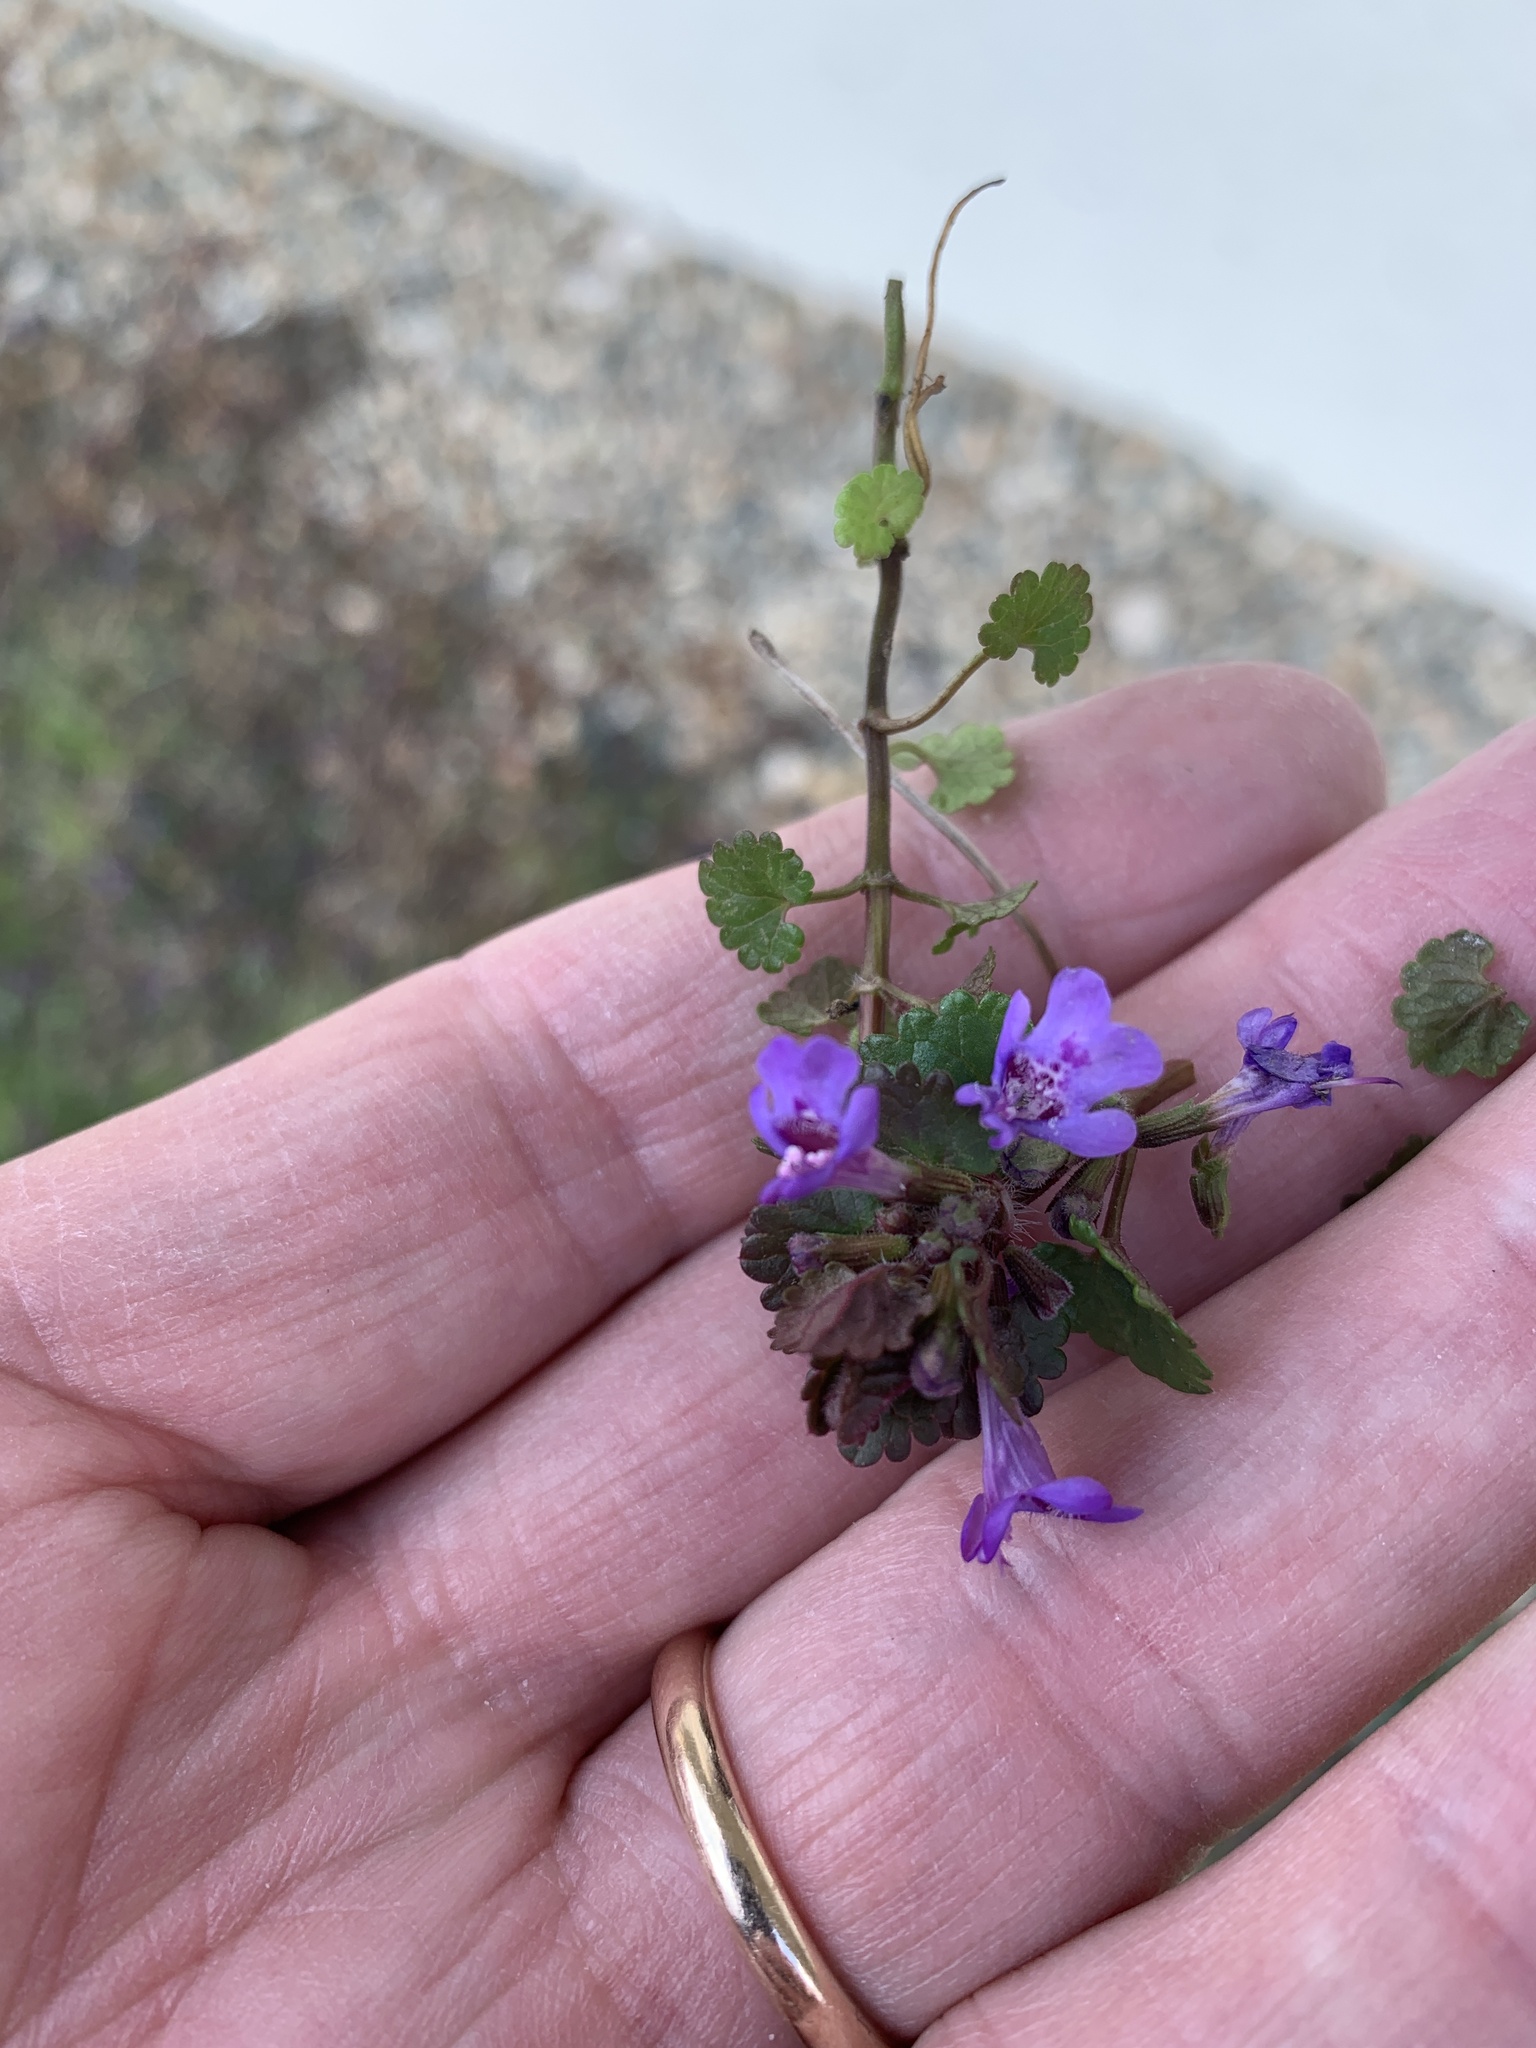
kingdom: Plantae
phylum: Tracheophyta
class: Magnoliopsida
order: Lamiales
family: Lamiaceae
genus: Glechoma
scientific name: Glechoma hederacea
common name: Ground ivy
